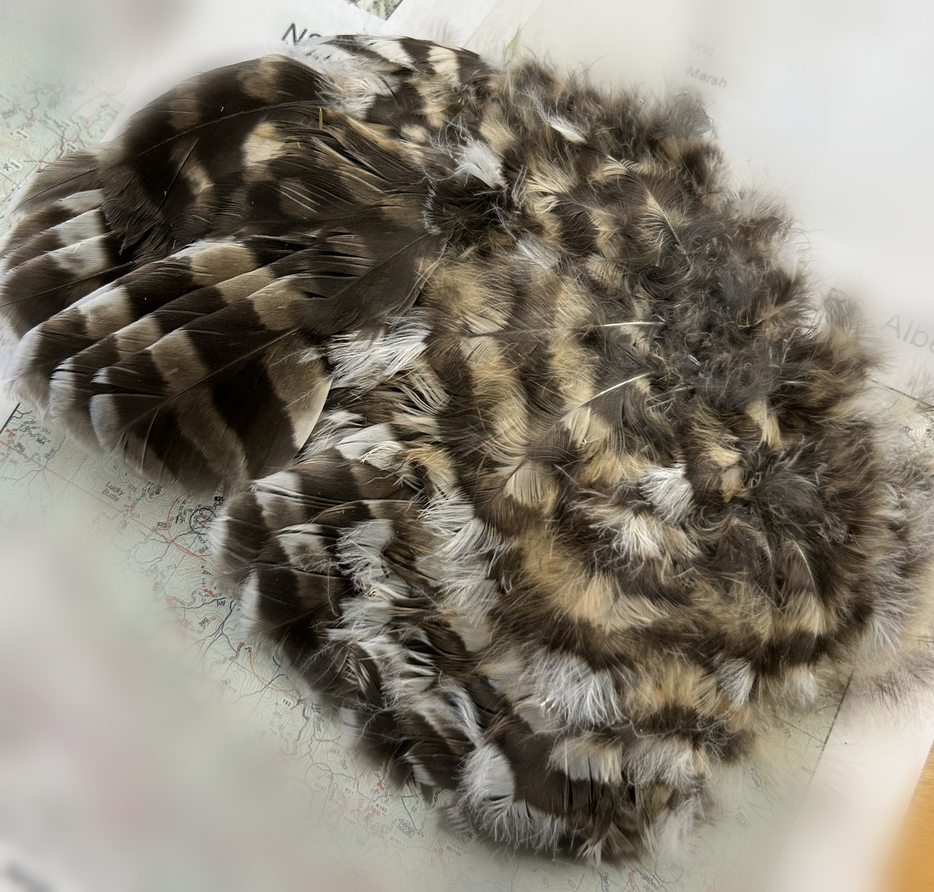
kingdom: Animalia
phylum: Chordata
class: Aves
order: Strigiformes
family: Strigidae
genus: Strix
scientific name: Strix varia
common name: Barred owl
